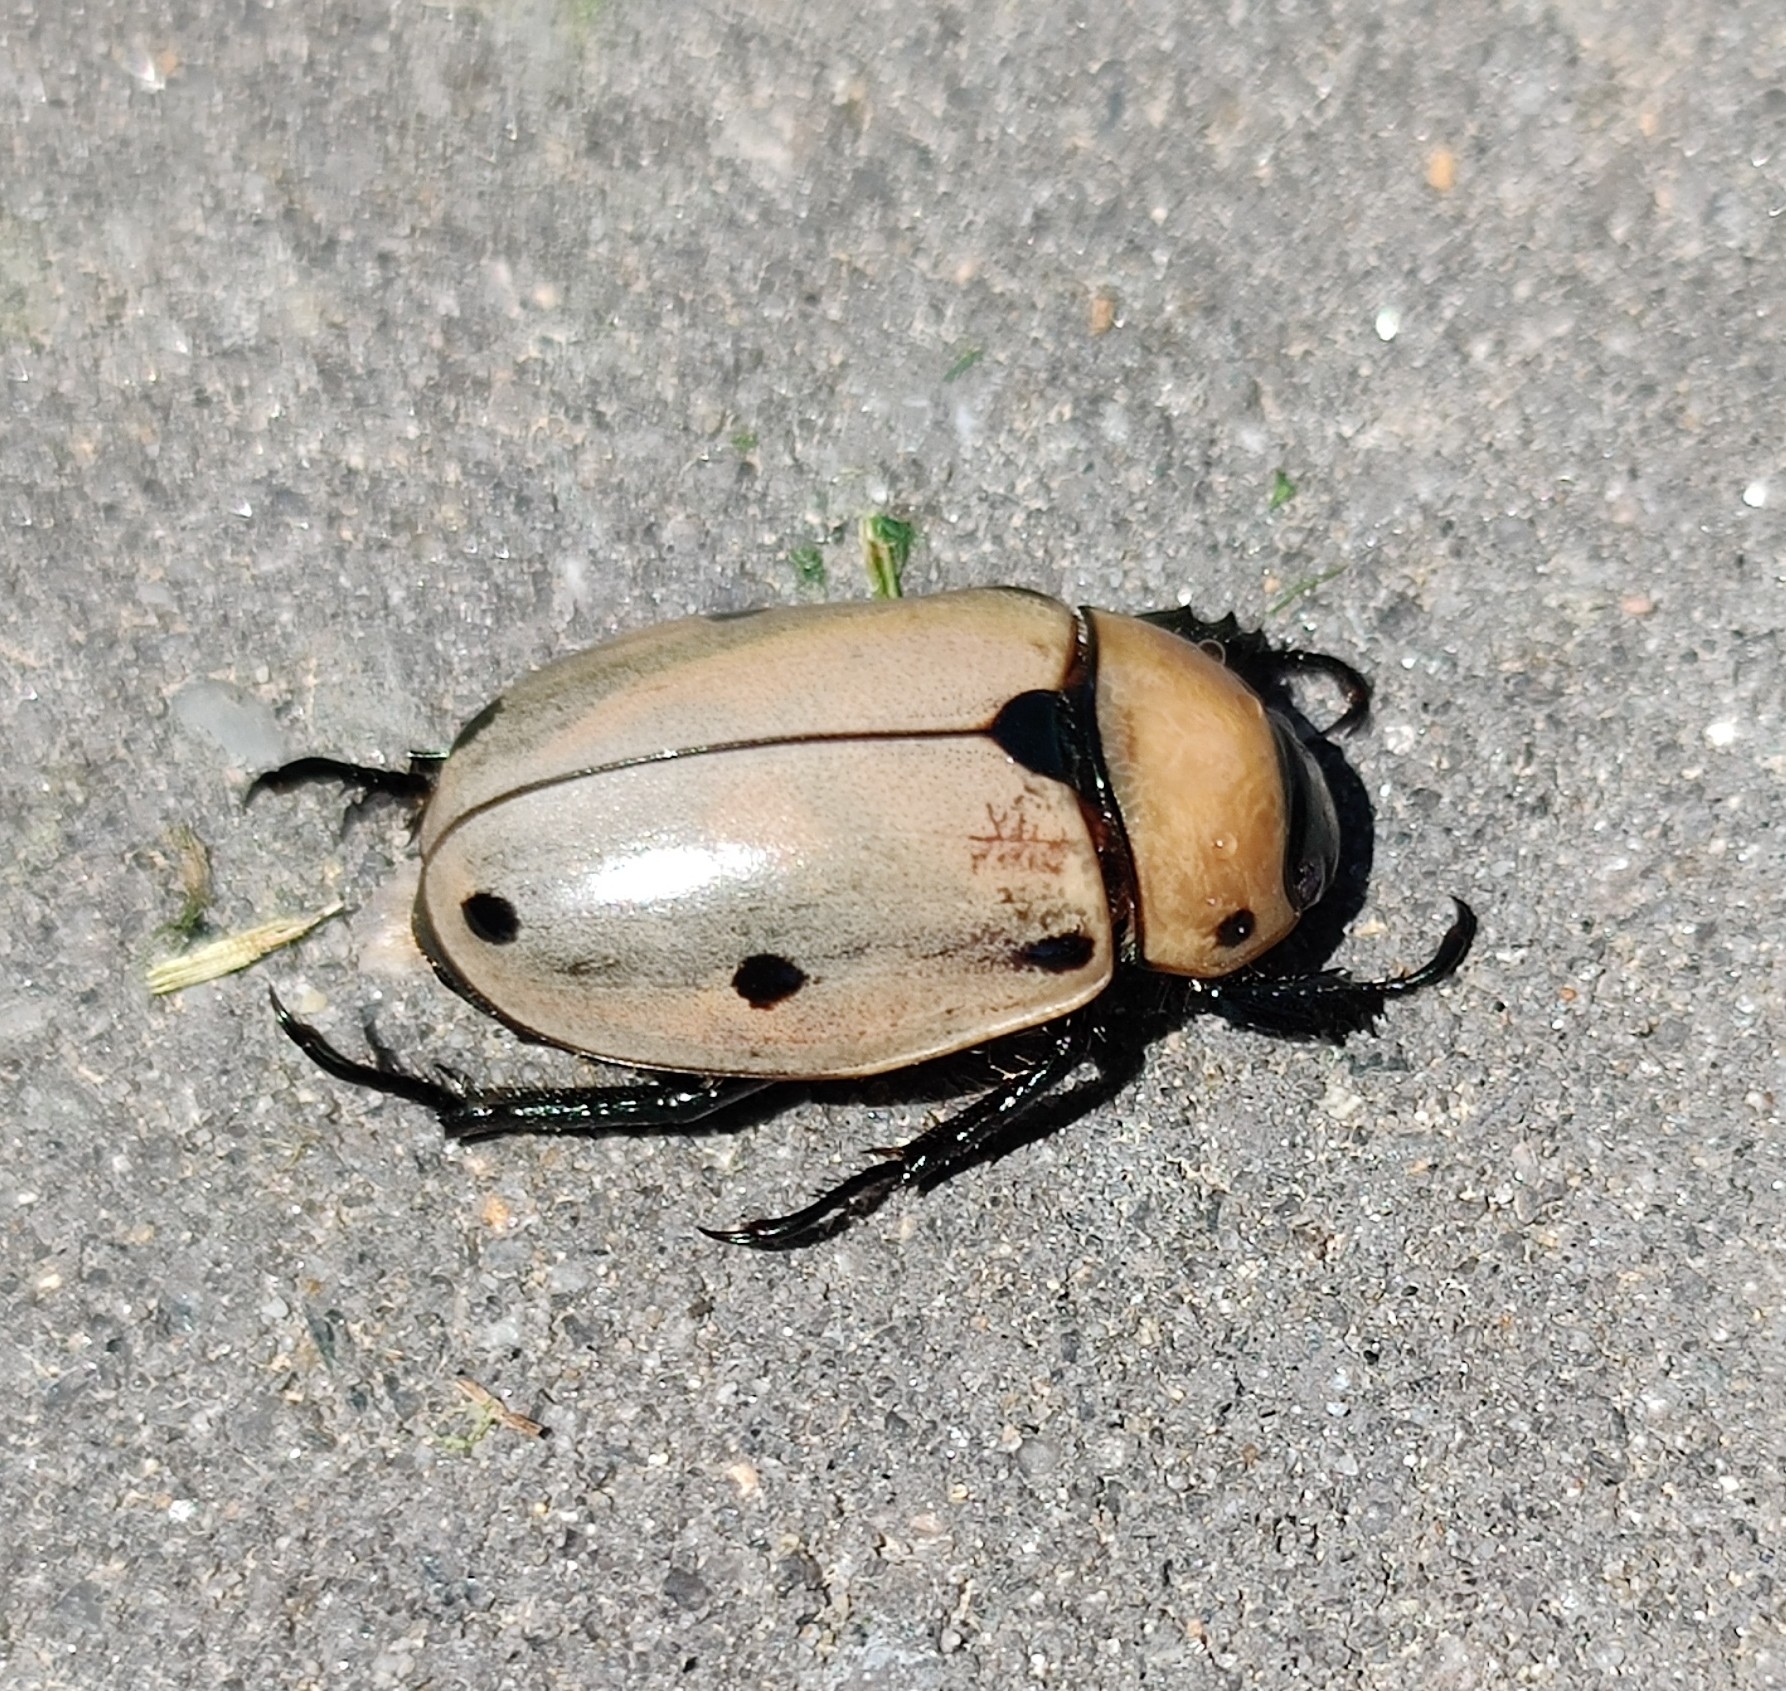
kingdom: Animalia
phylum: Arthropoda
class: Insecta
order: Coleoptera
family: Scarabaeidae
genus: Pelidnota
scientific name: Pelidnota punctata
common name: Grapevine beetle
